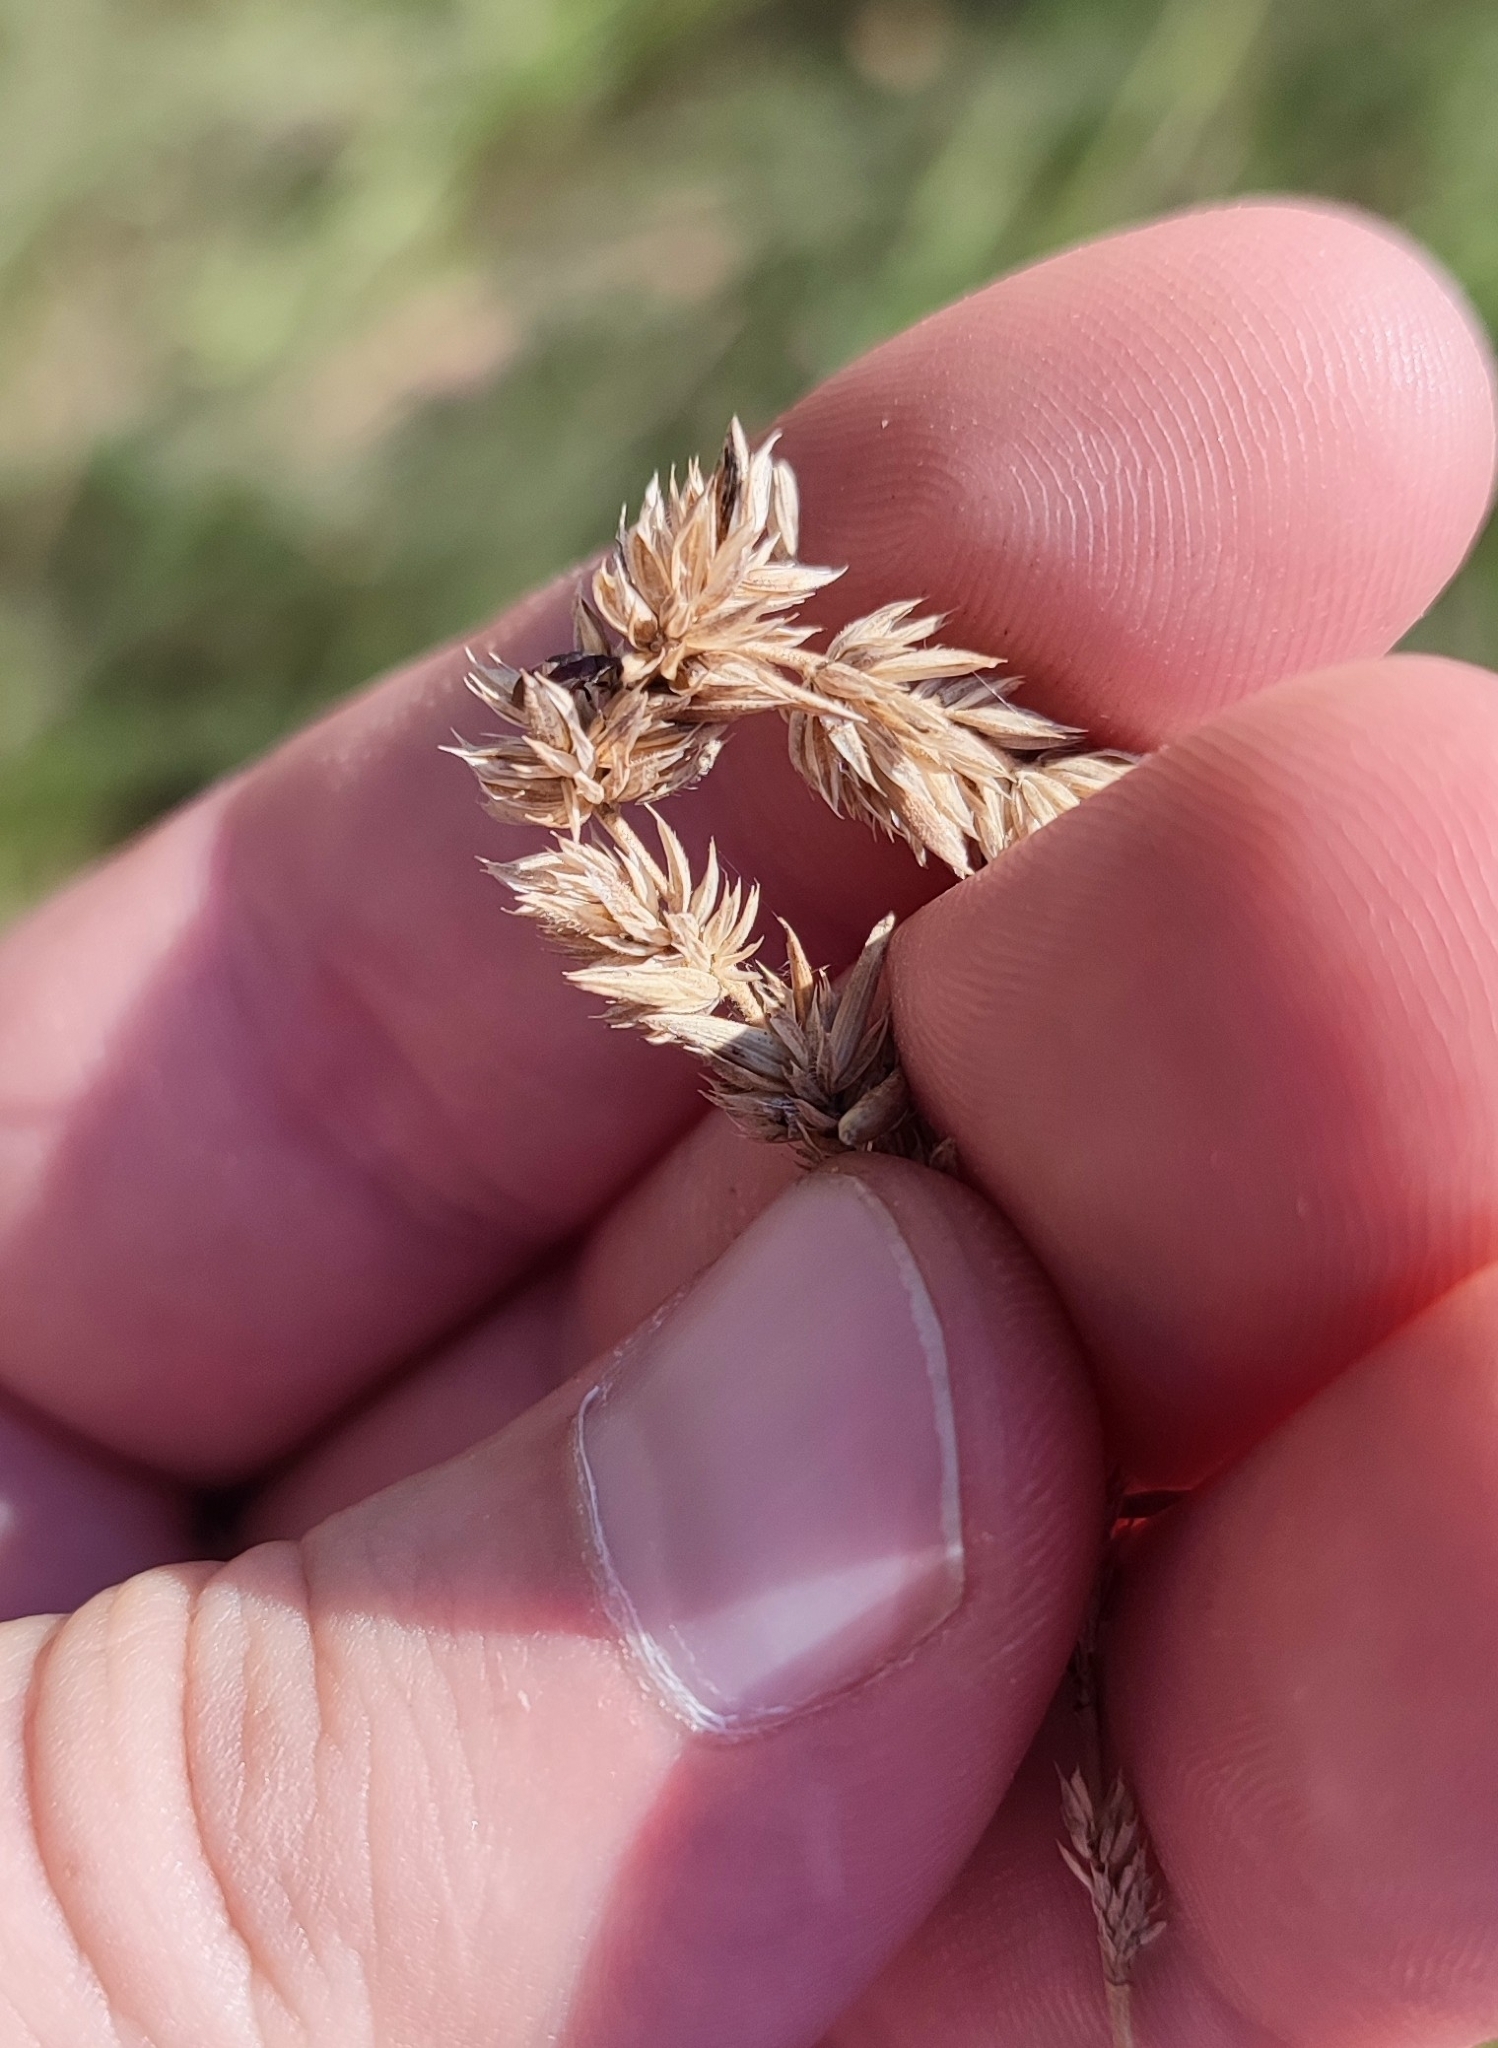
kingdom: Plantae
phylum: Tracheophyta
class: Liliopsida
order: Poales
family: Poaceae
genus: Phleum
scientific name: Phleum phleoides
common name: Purple-stem cat's-tail
